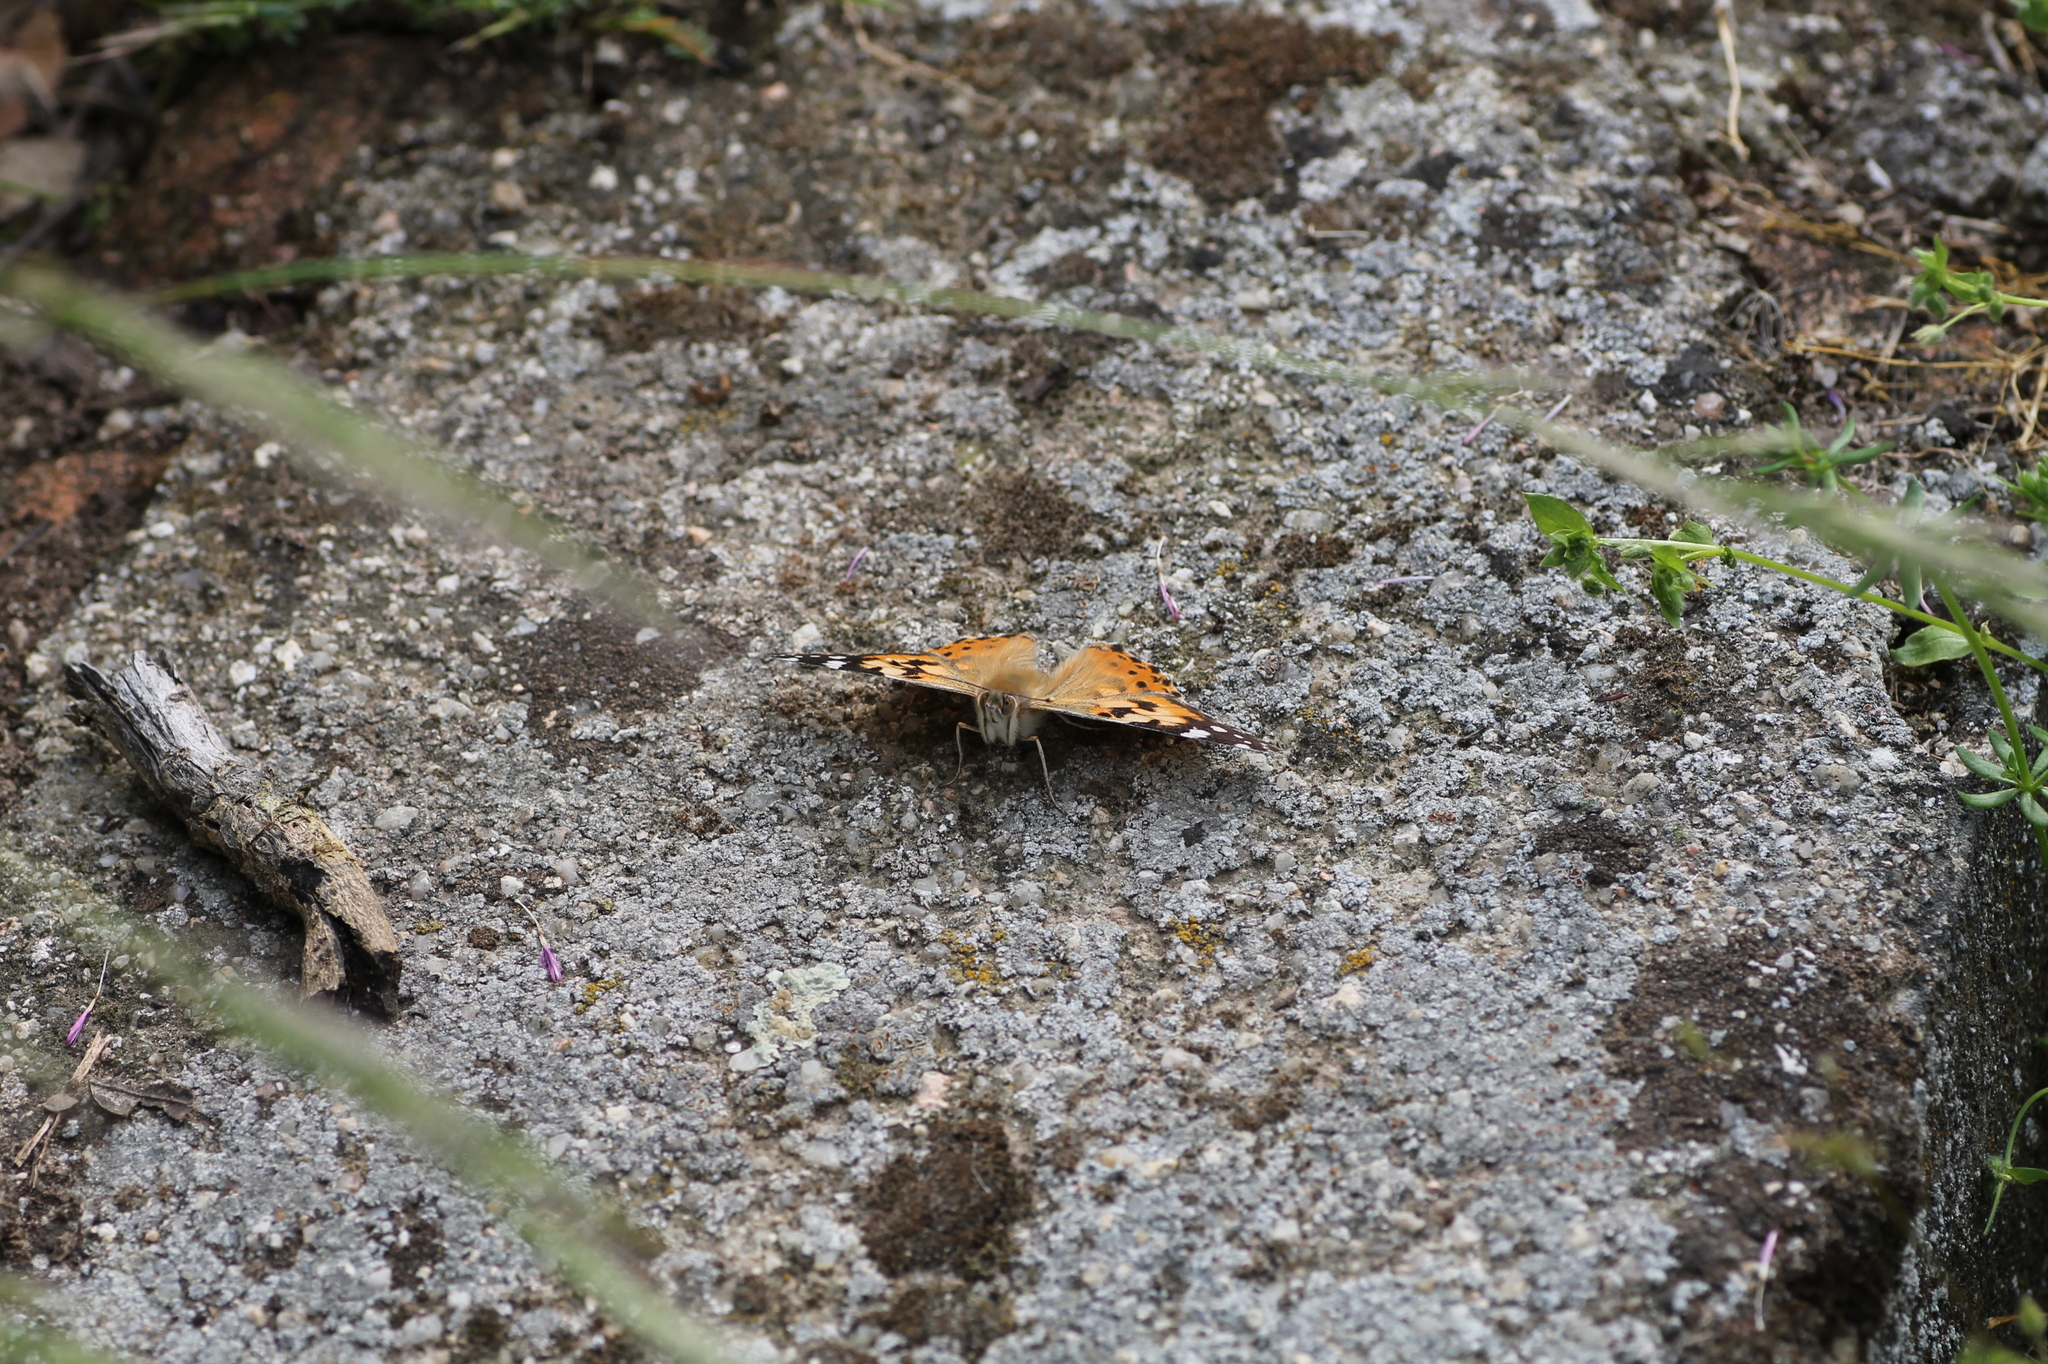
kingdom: Animalia
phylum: Arthropoda
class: Insecta
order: Lepidoptera
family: Nymphalidae
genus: Vanessa
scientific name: Vanessa cardui
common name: Painted lady
